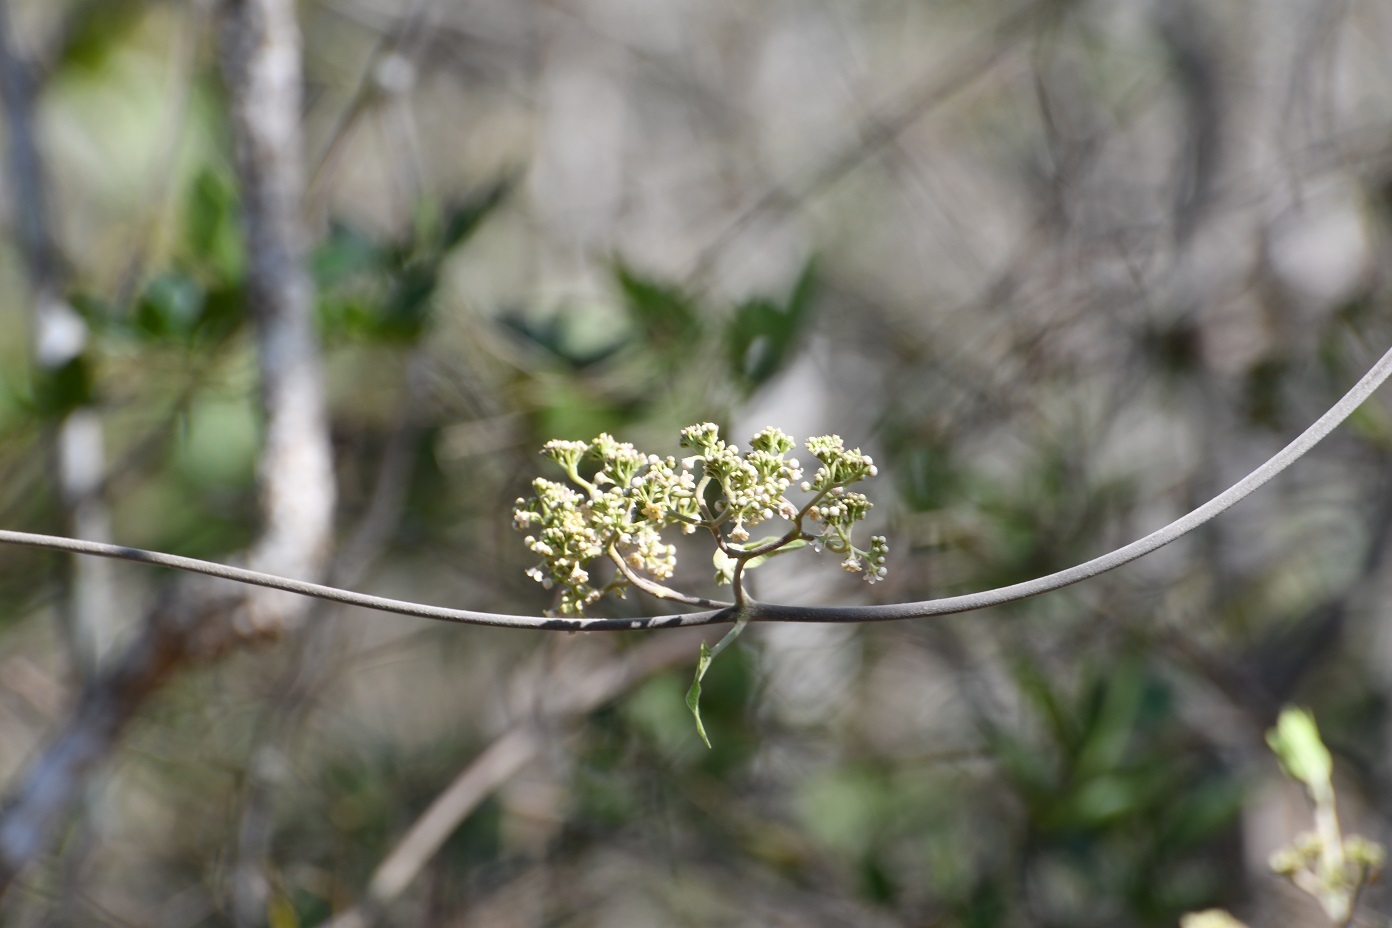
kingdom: Plantae
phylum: Tracheophyta
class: Magnoliopsida
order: Gentianales
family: Apocynaceae
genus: Ruehssia
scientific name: Ruehssia mexicana
